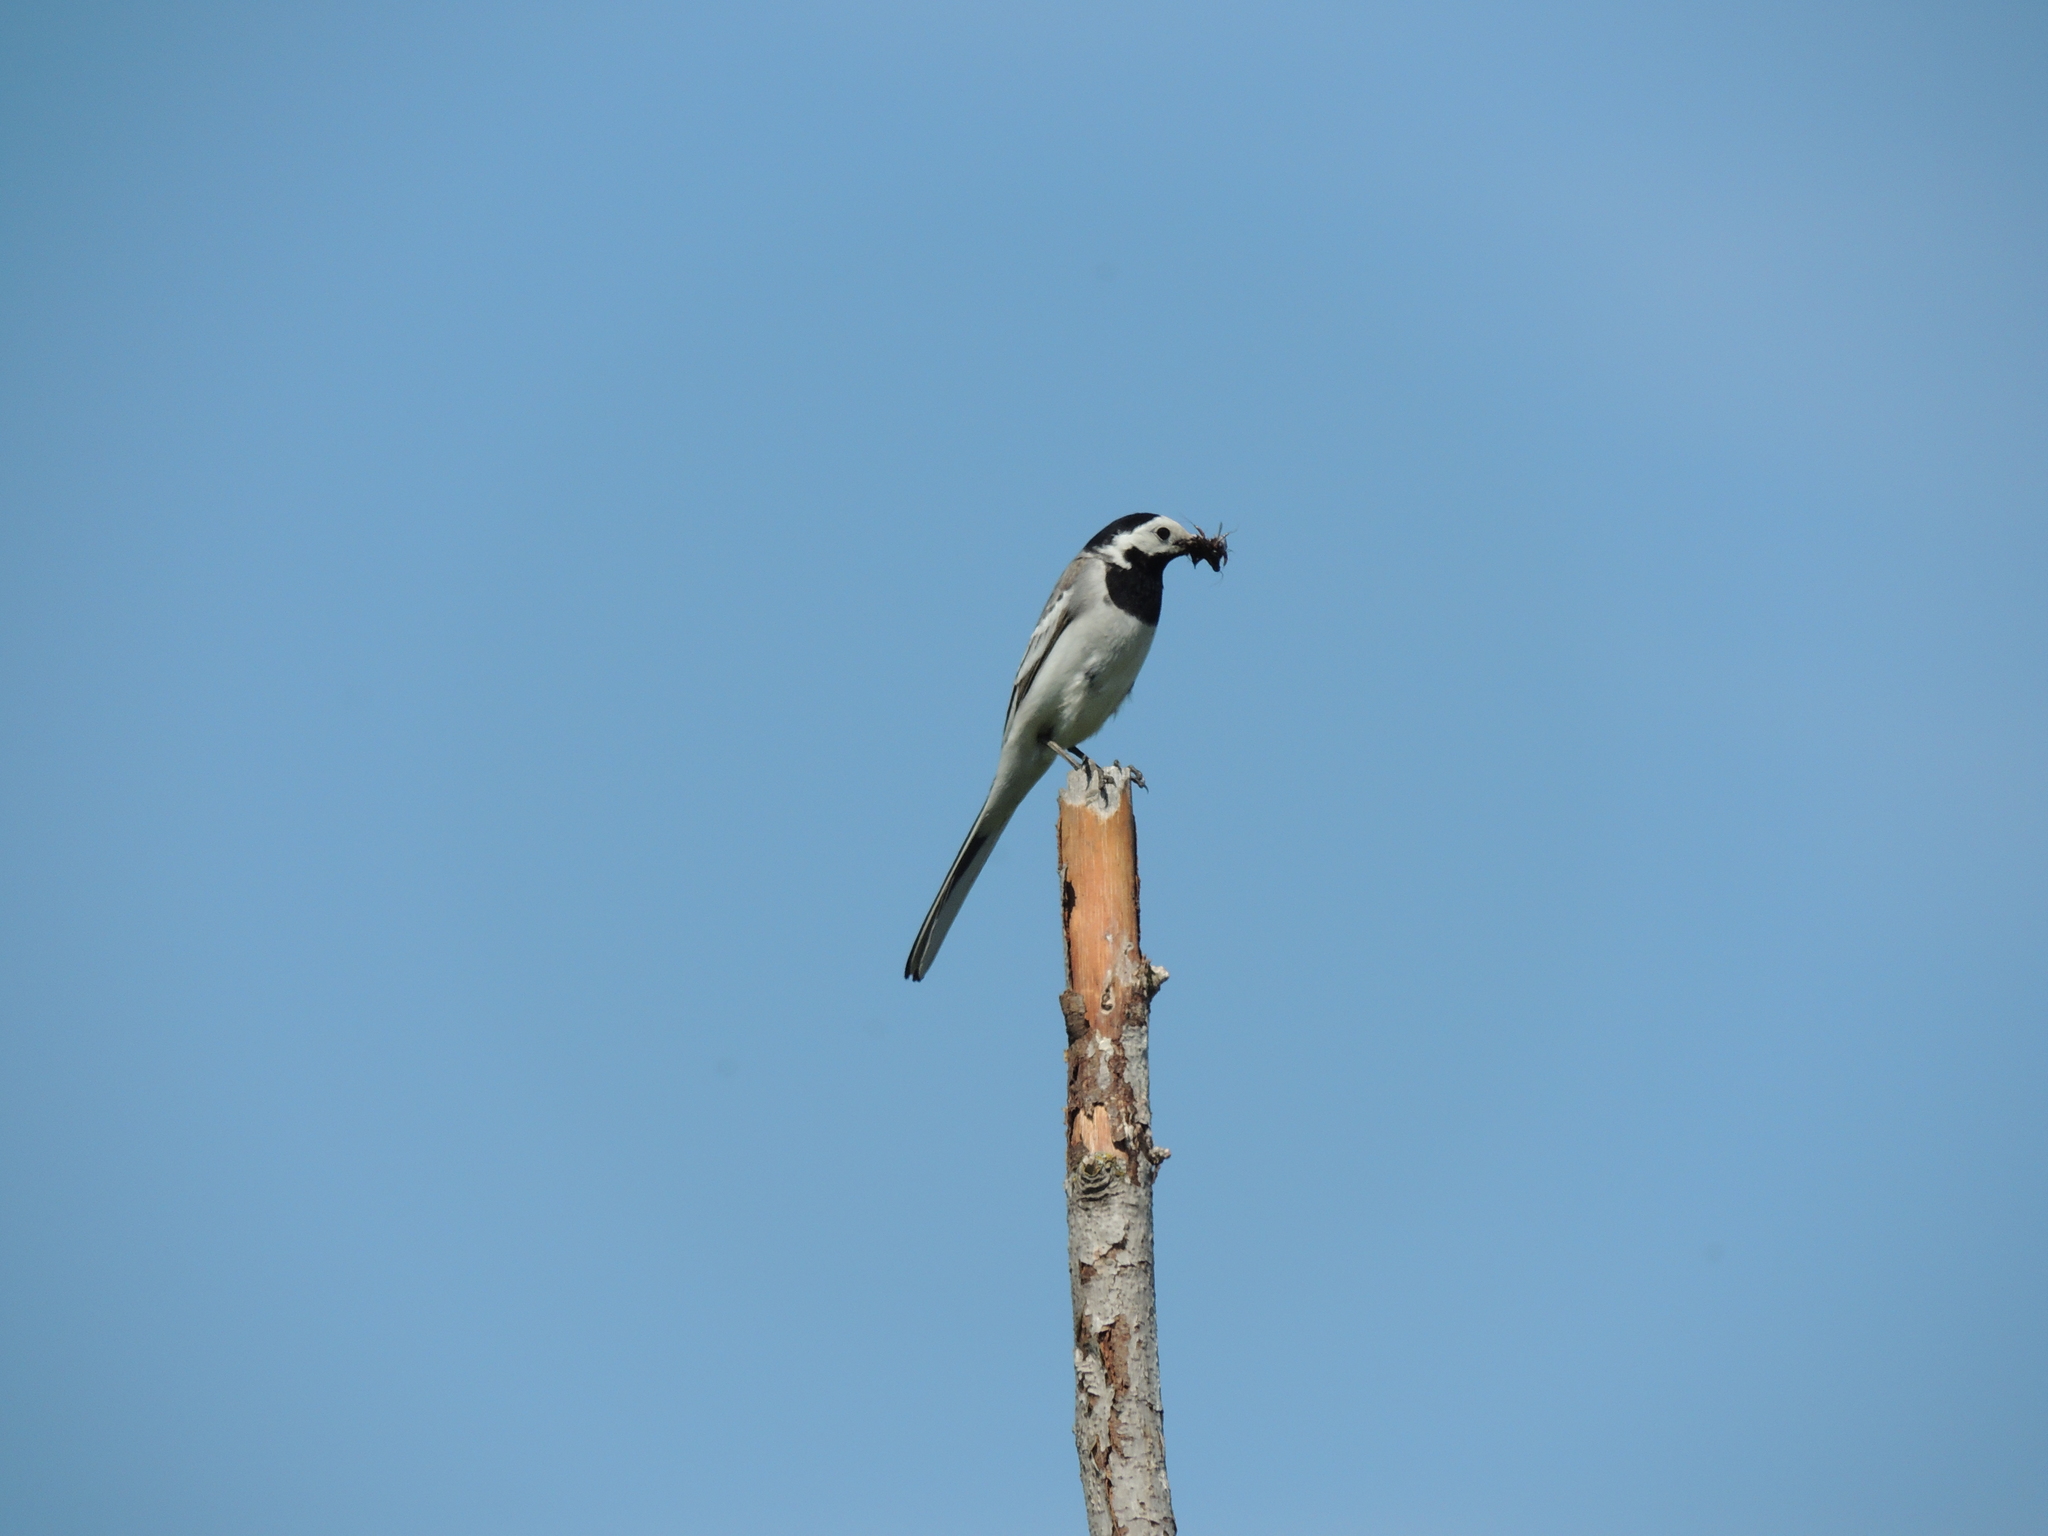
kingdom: Animalia
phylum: Chordata
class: Aves
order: Passeriformes
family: Motacillidae
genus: Motacilla
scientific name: Motacilla alba
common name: White wagtail
